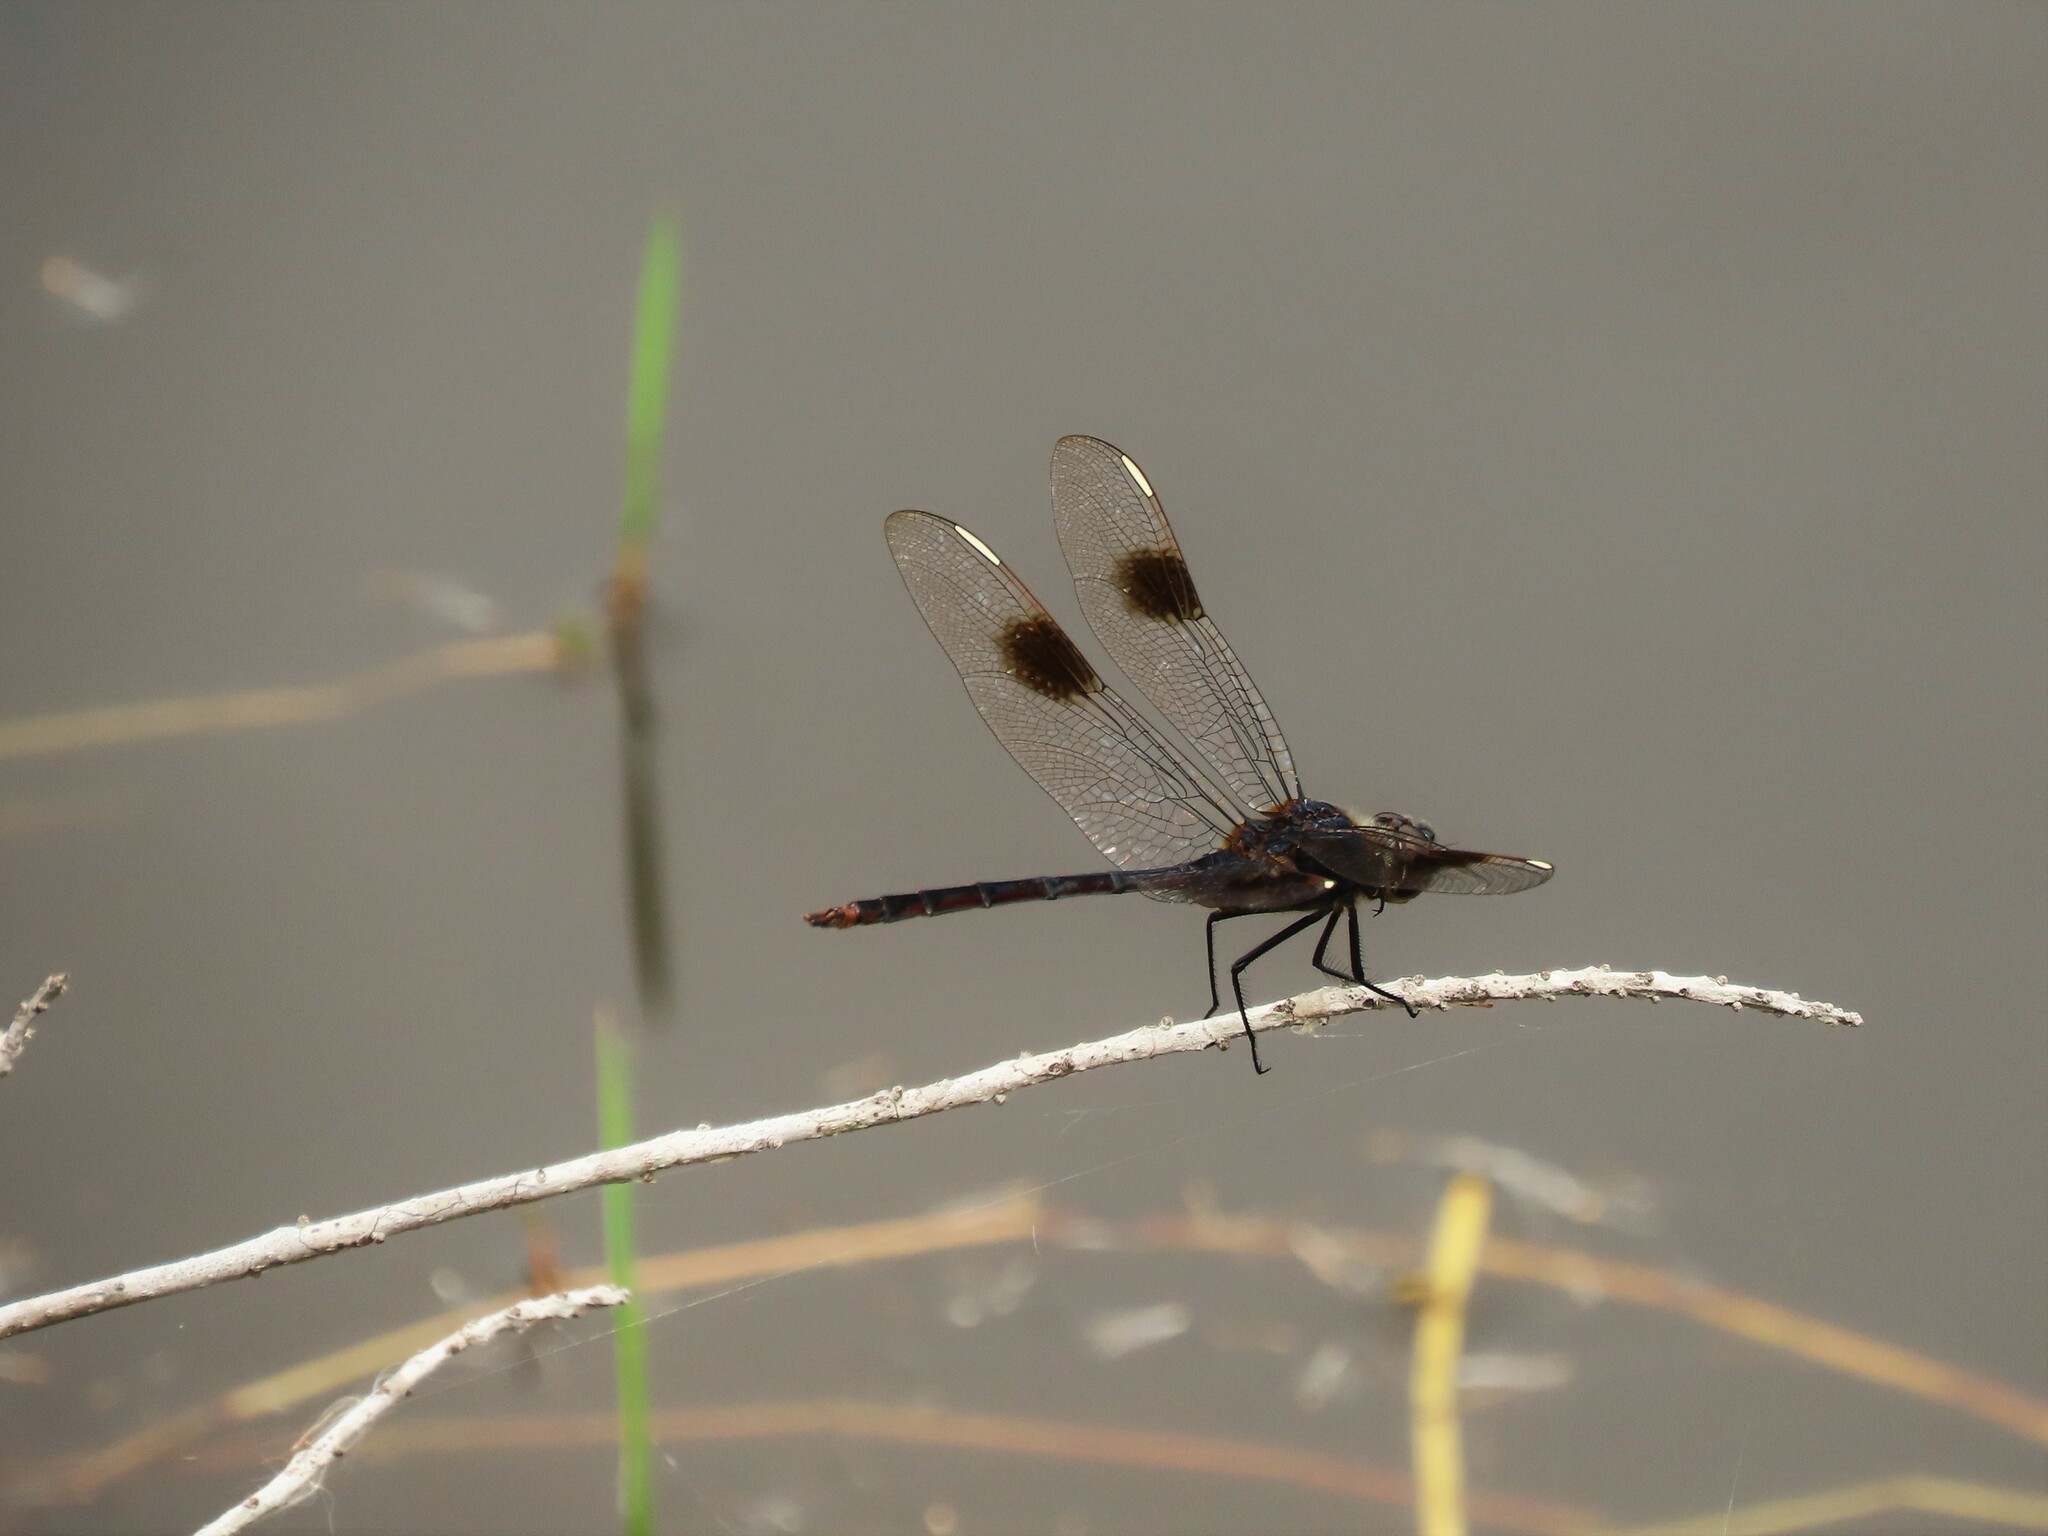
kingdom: Animalia
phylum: Arthropoda
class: Insecta
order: Odonata
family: Libellulidae
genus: Brachymesia
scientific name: Brachymesia gravida
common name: Four-spotted pennant
